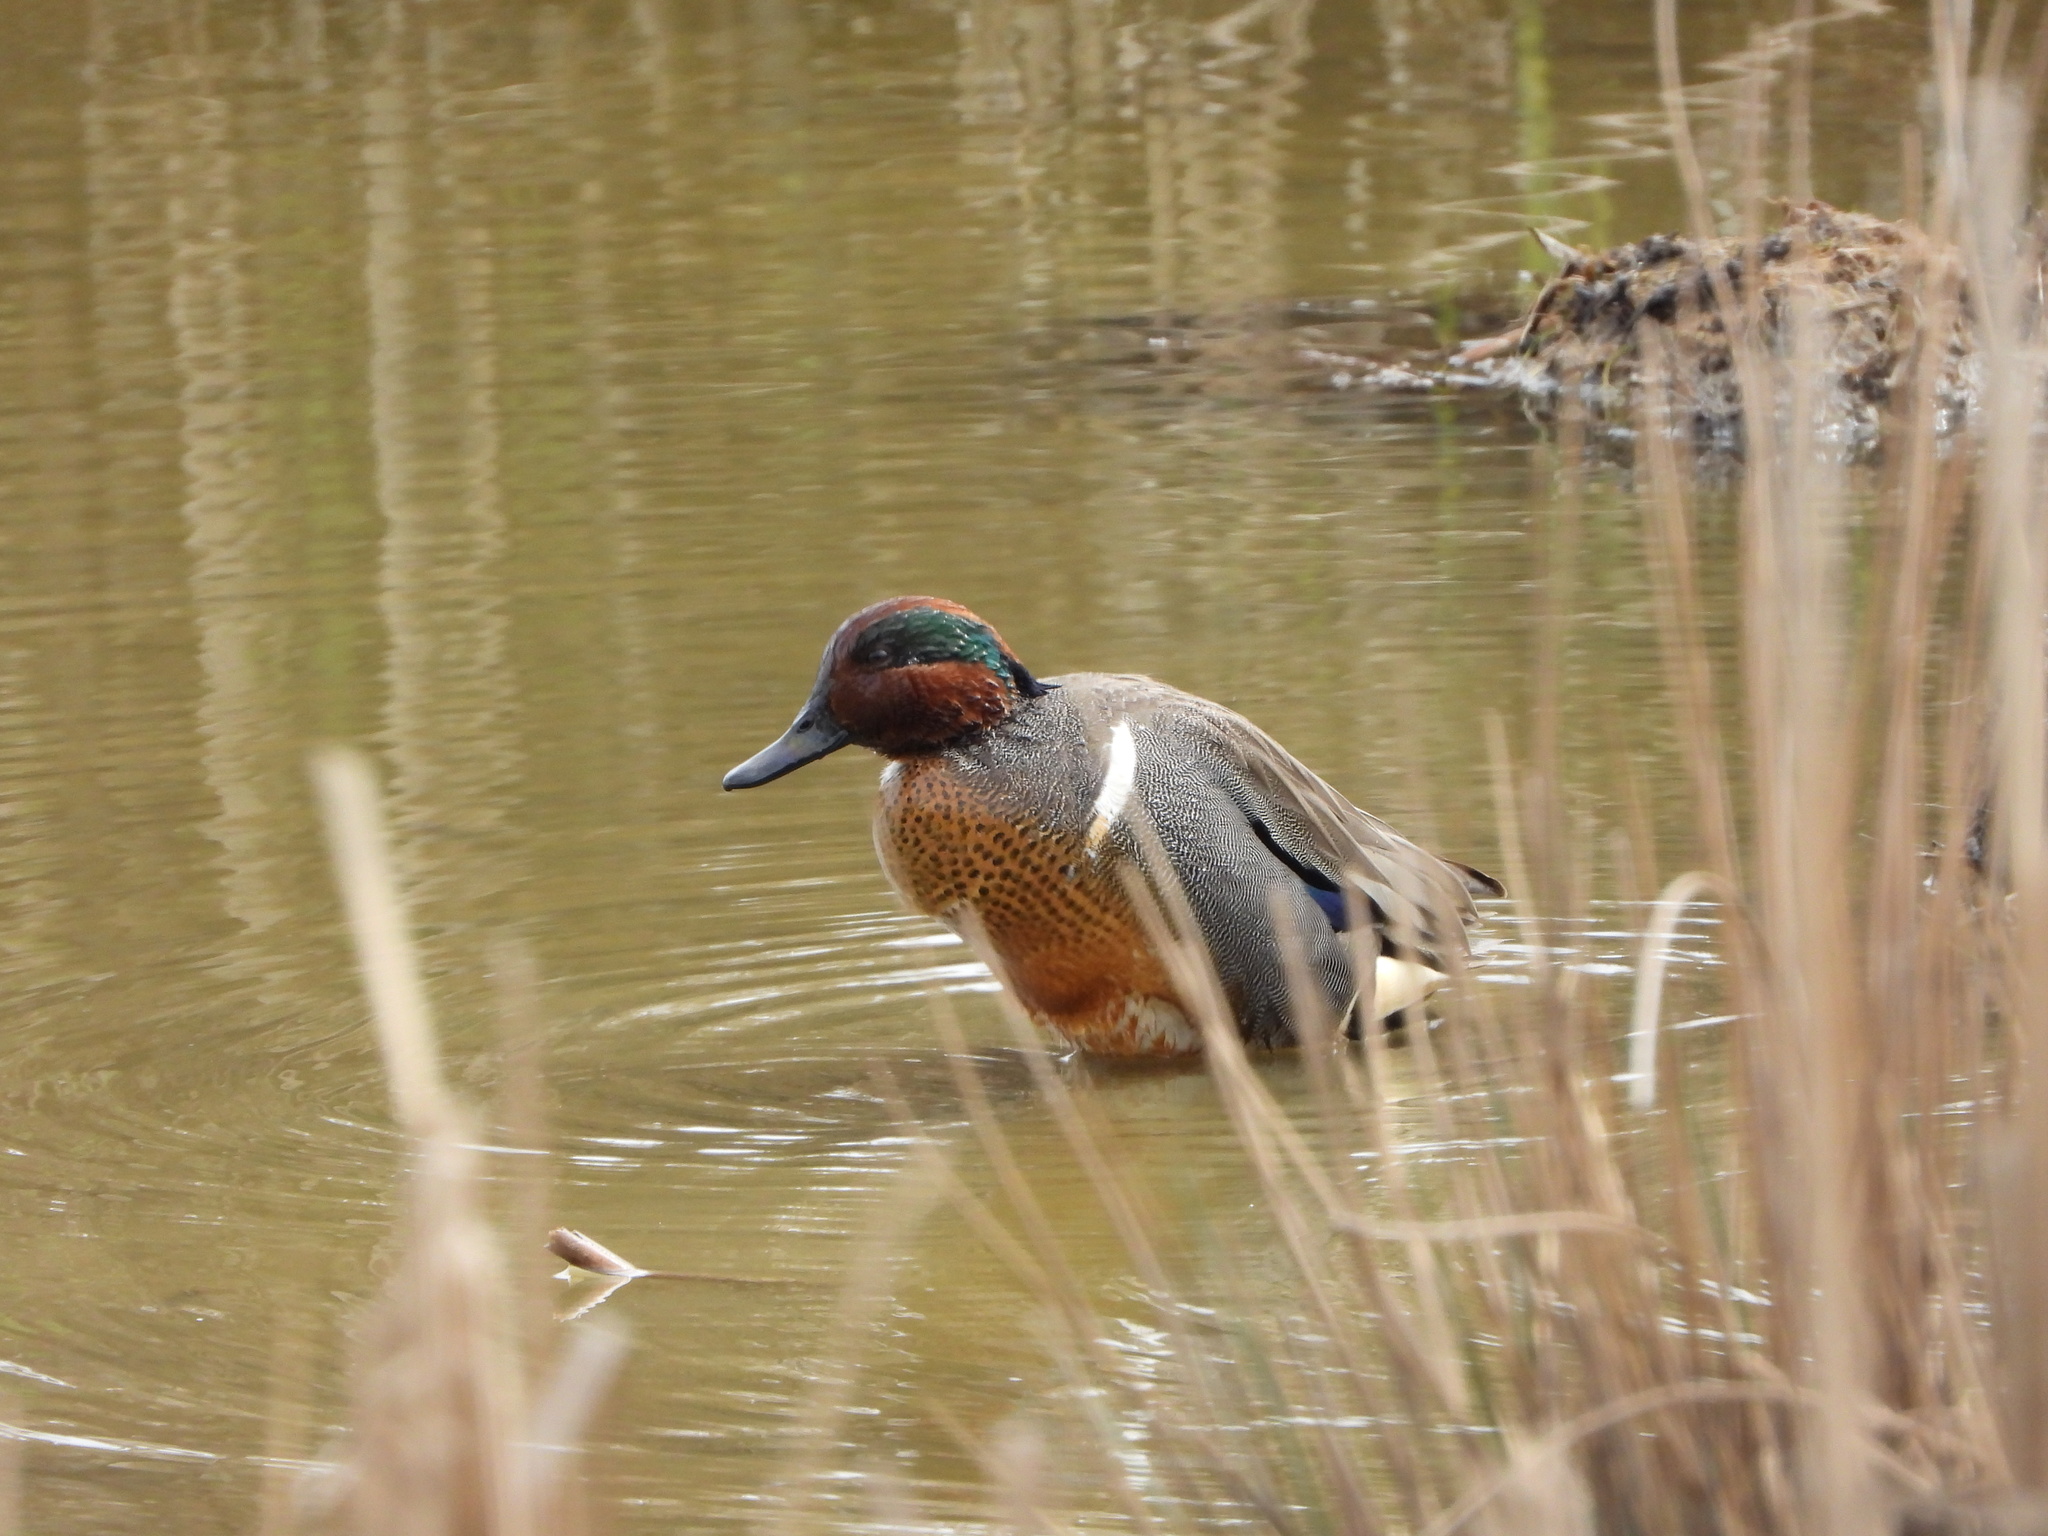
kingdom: Animalia
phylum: Chordata
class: Aves
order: Anseriformes
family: Anatidae
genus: Anas
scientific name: Anas carolinensis
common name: Green-winged teal
